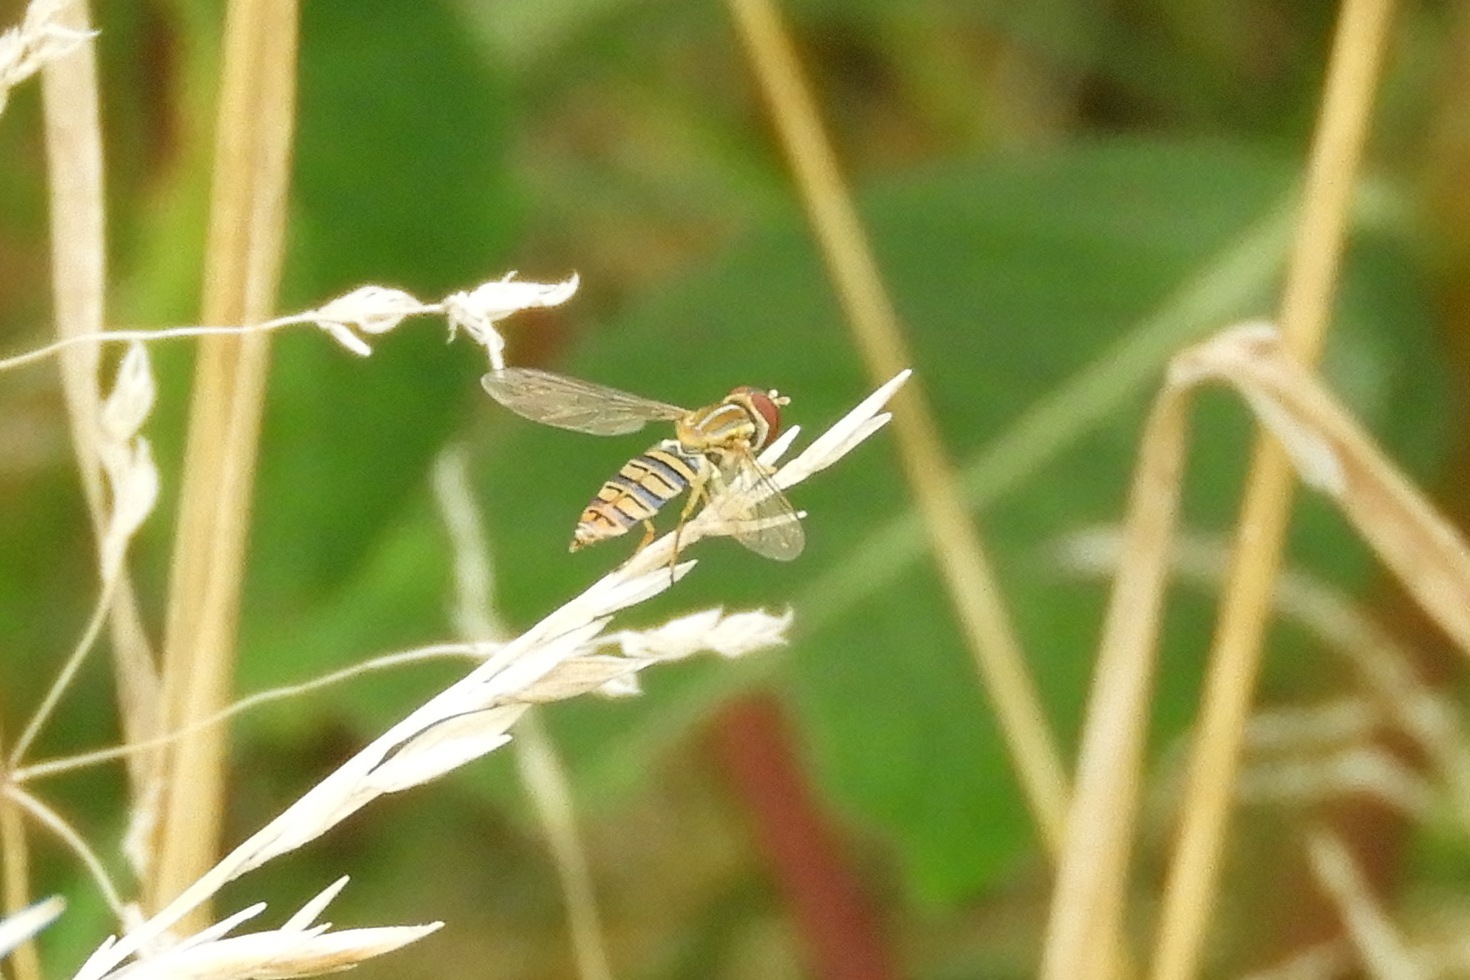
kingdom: Animalia
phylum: Arthropoda
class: Insecta
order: Diptera
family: Syrphidae
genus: Toxomerus
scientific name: Toxomerus politus
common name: Maize calligrapher
